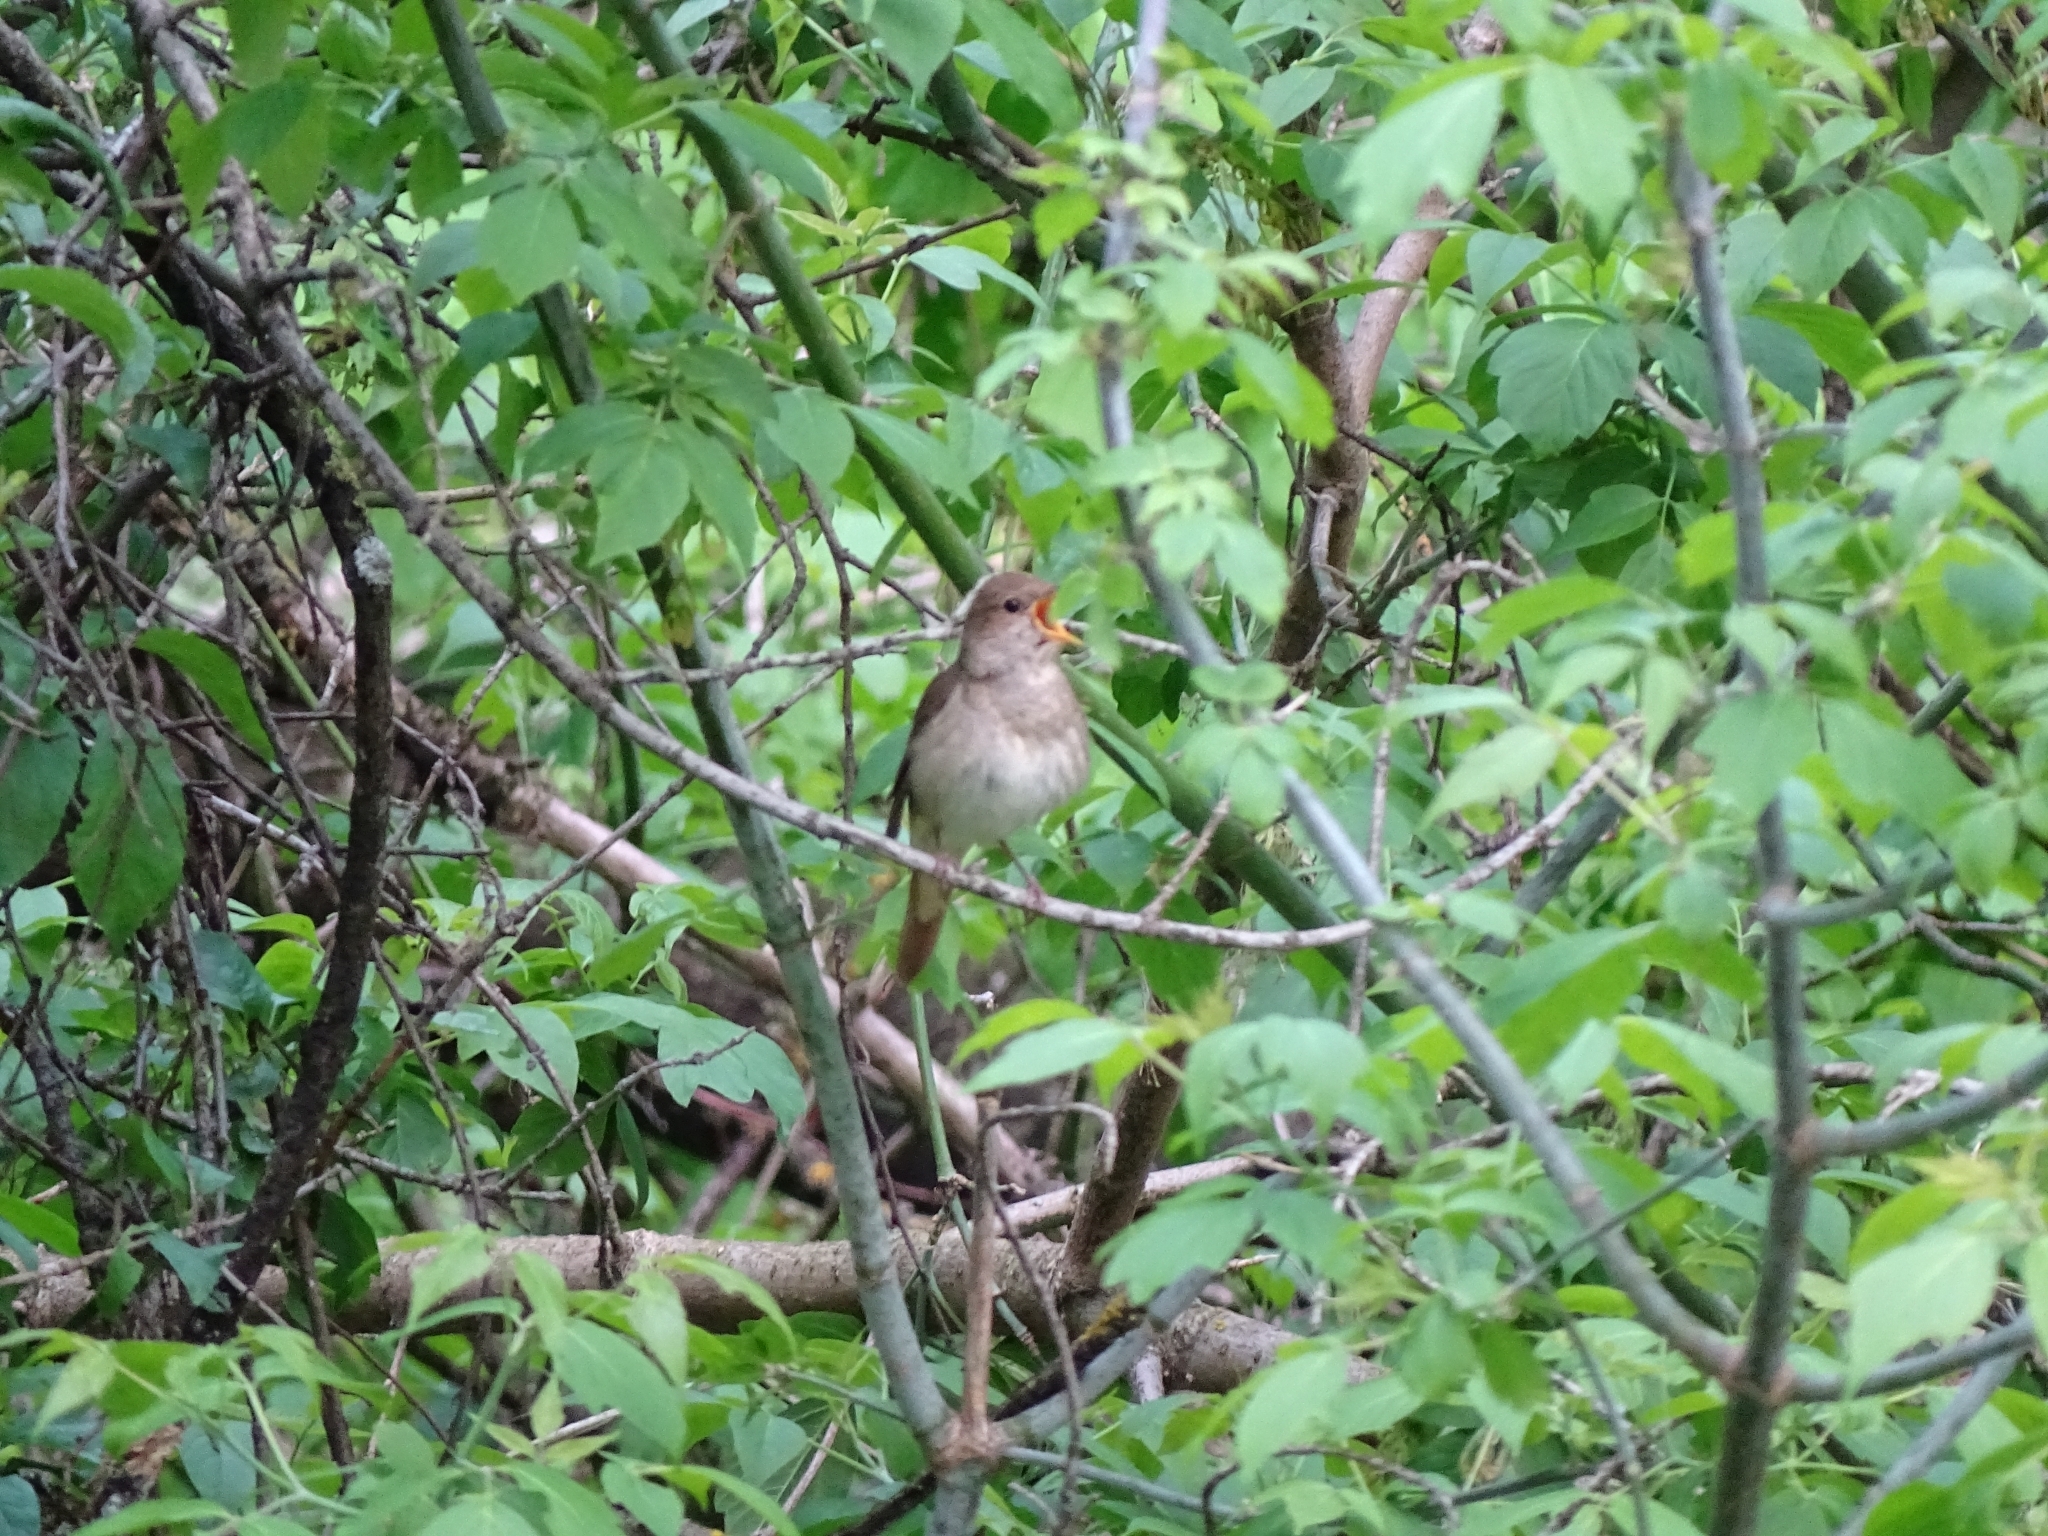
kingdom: Animalia
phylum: Chordata
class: Aves
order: Passeriformes
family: Muscicapidae
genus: Luscinia
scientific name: Luscinia luscinia
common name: Thrush nightingale
